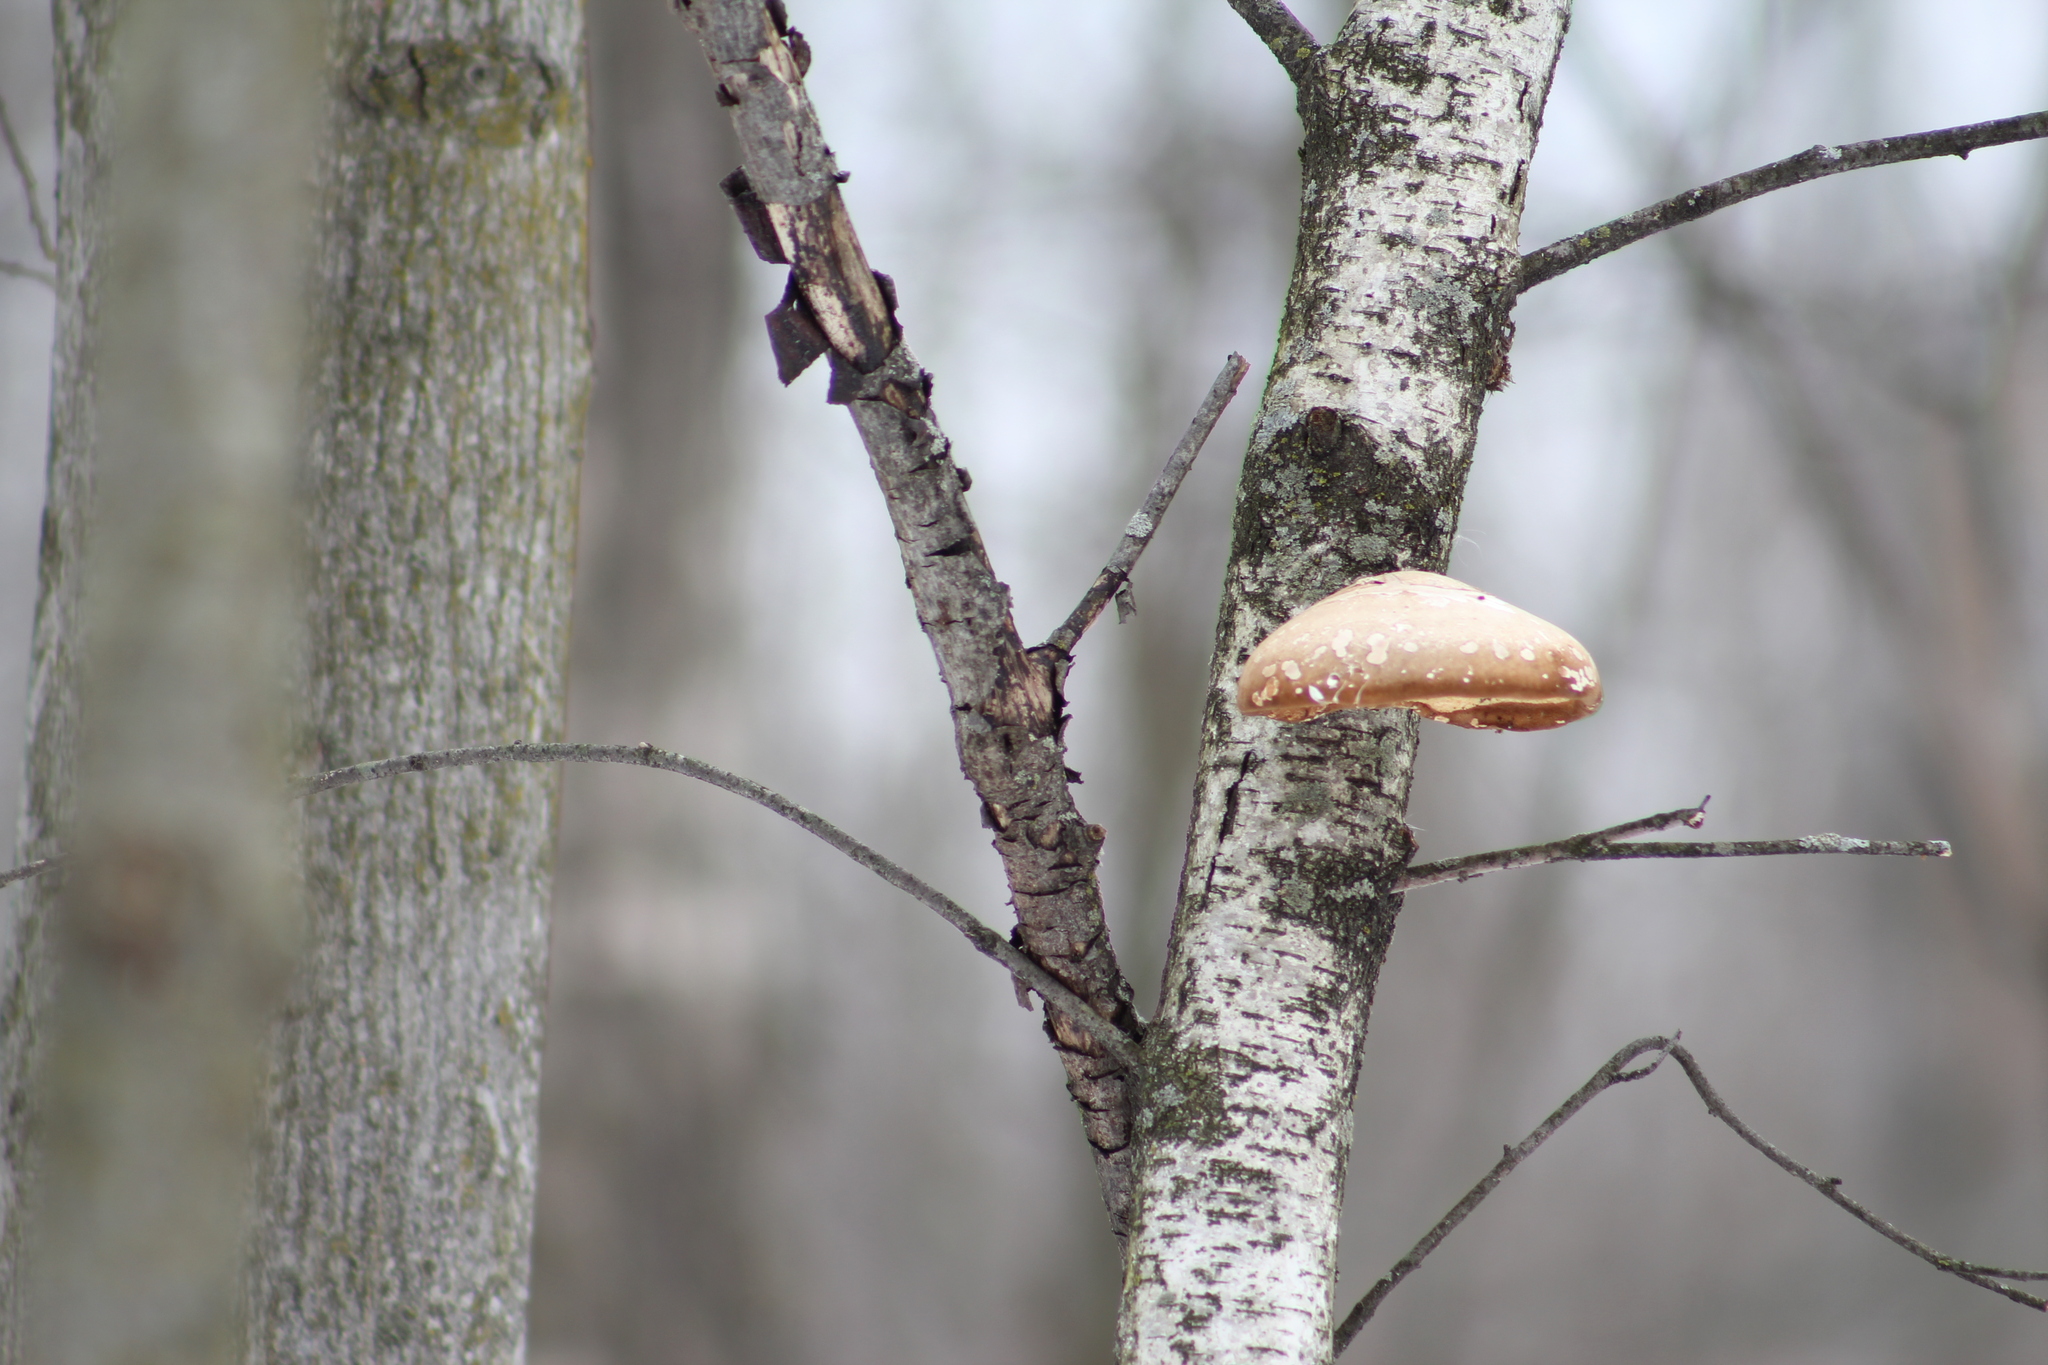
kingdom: Fungi
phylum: Basidiomycota
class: Agaricomycetes
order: Polyporales
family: Fomitopsidaceae
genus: Fomitopsis
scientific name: Fomitopsis betulina
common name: Birch polypore
